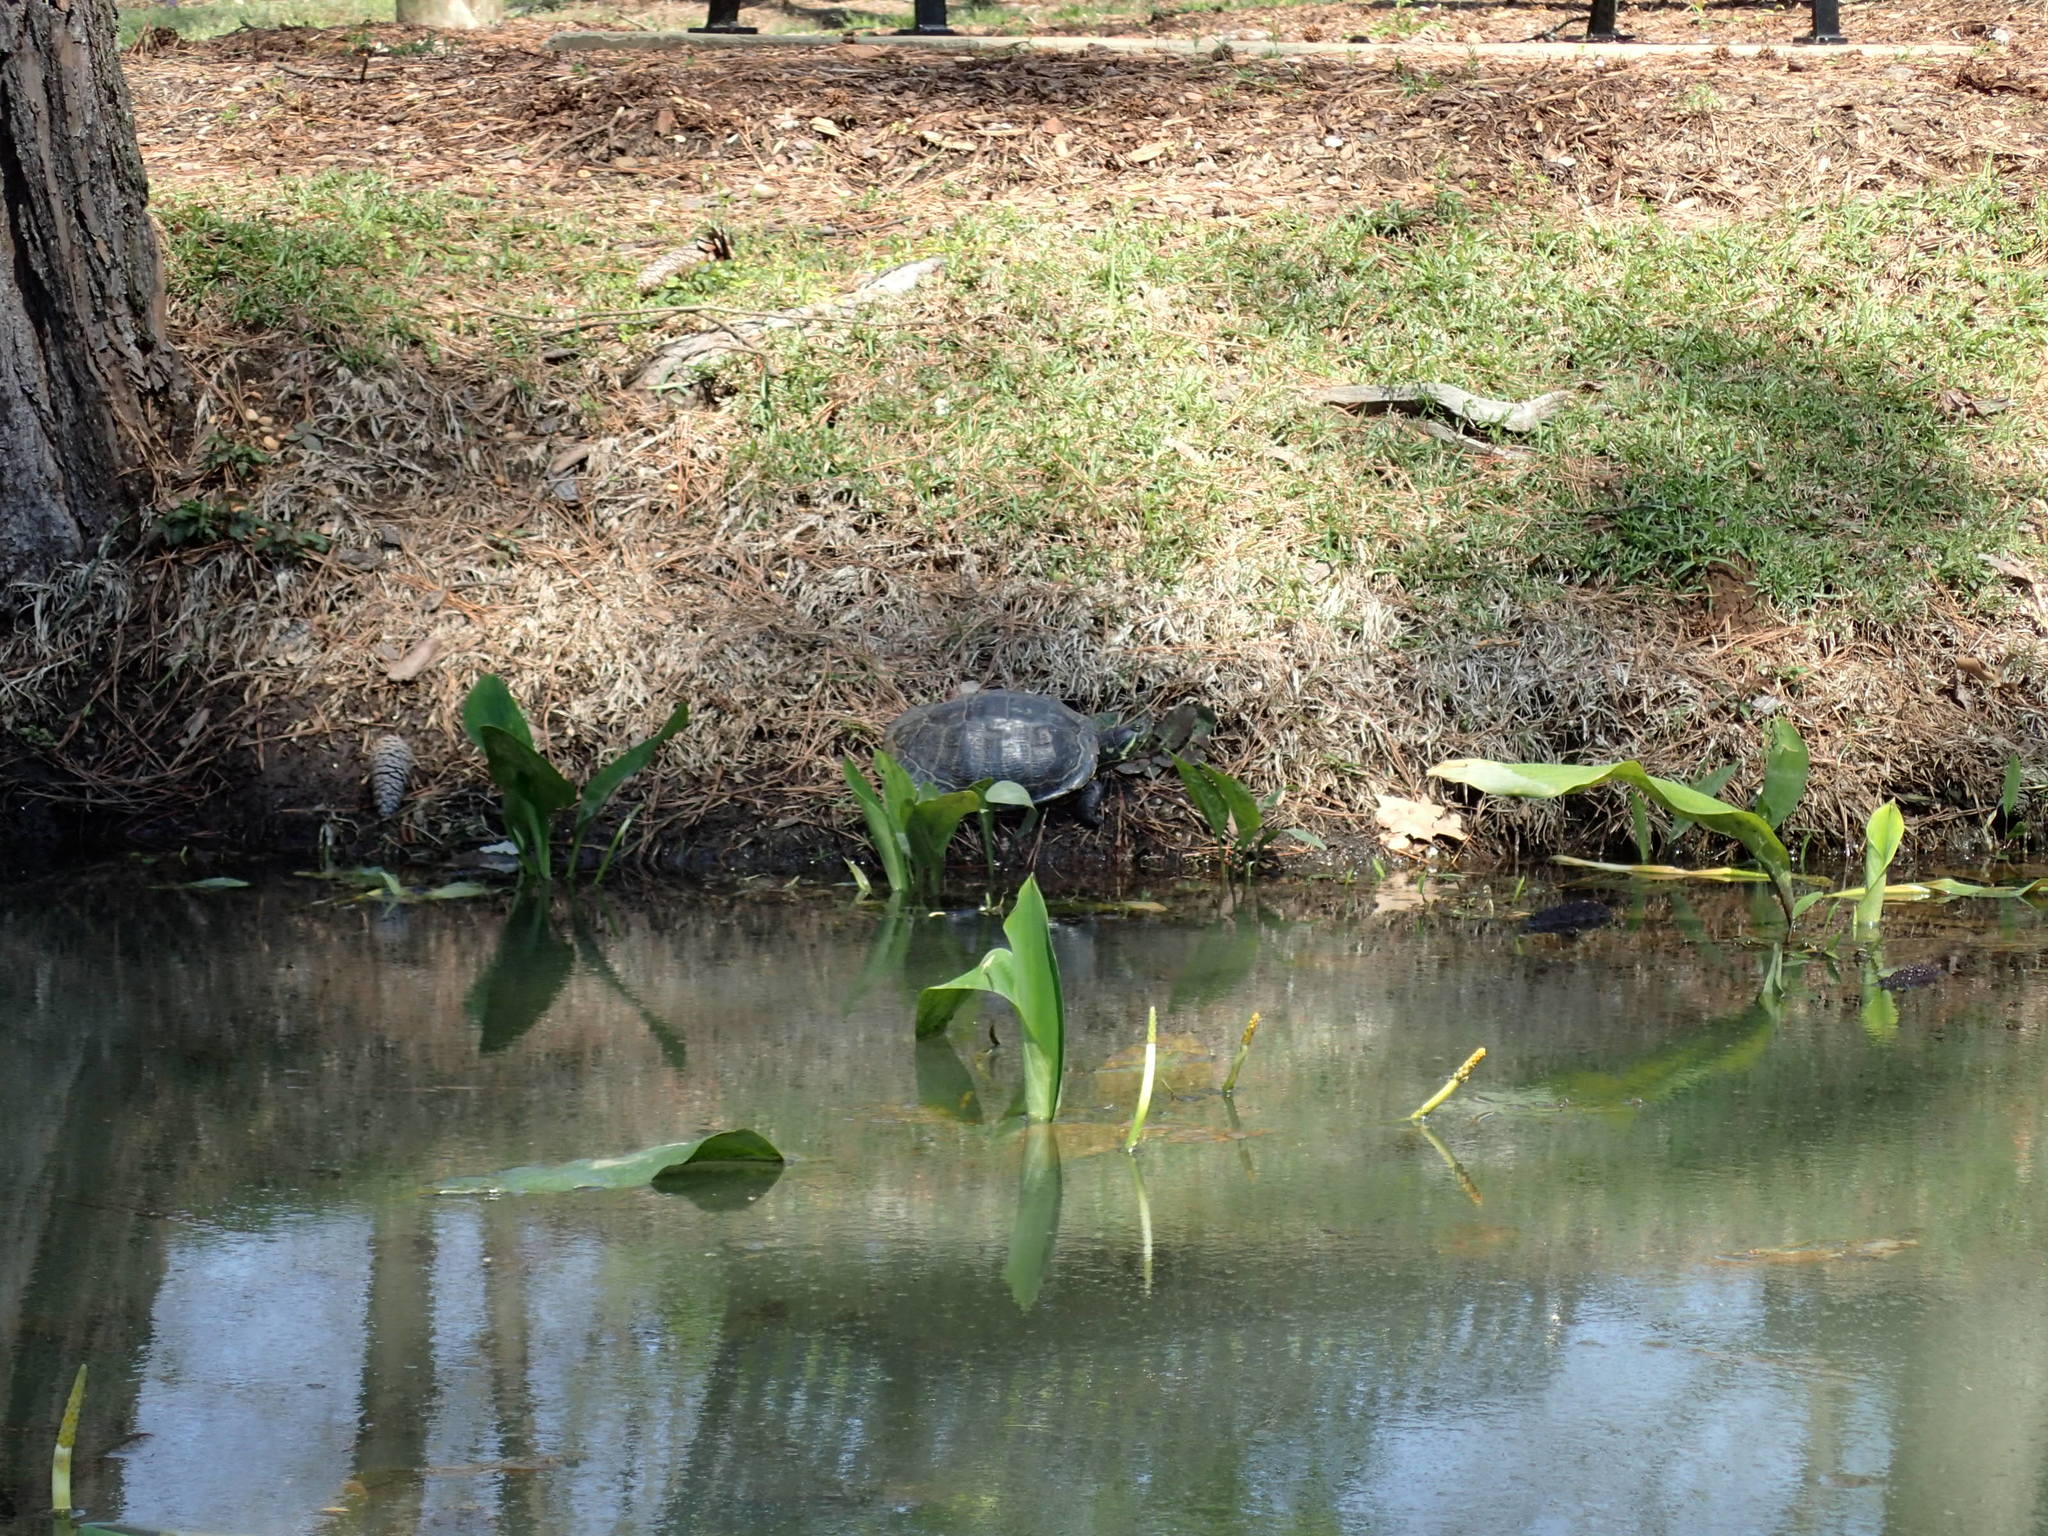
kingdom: Animalia
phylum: Chordata
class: Testudines
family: Emydidae
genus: Trachemys
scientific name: Trachemys scripta
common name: Slider
